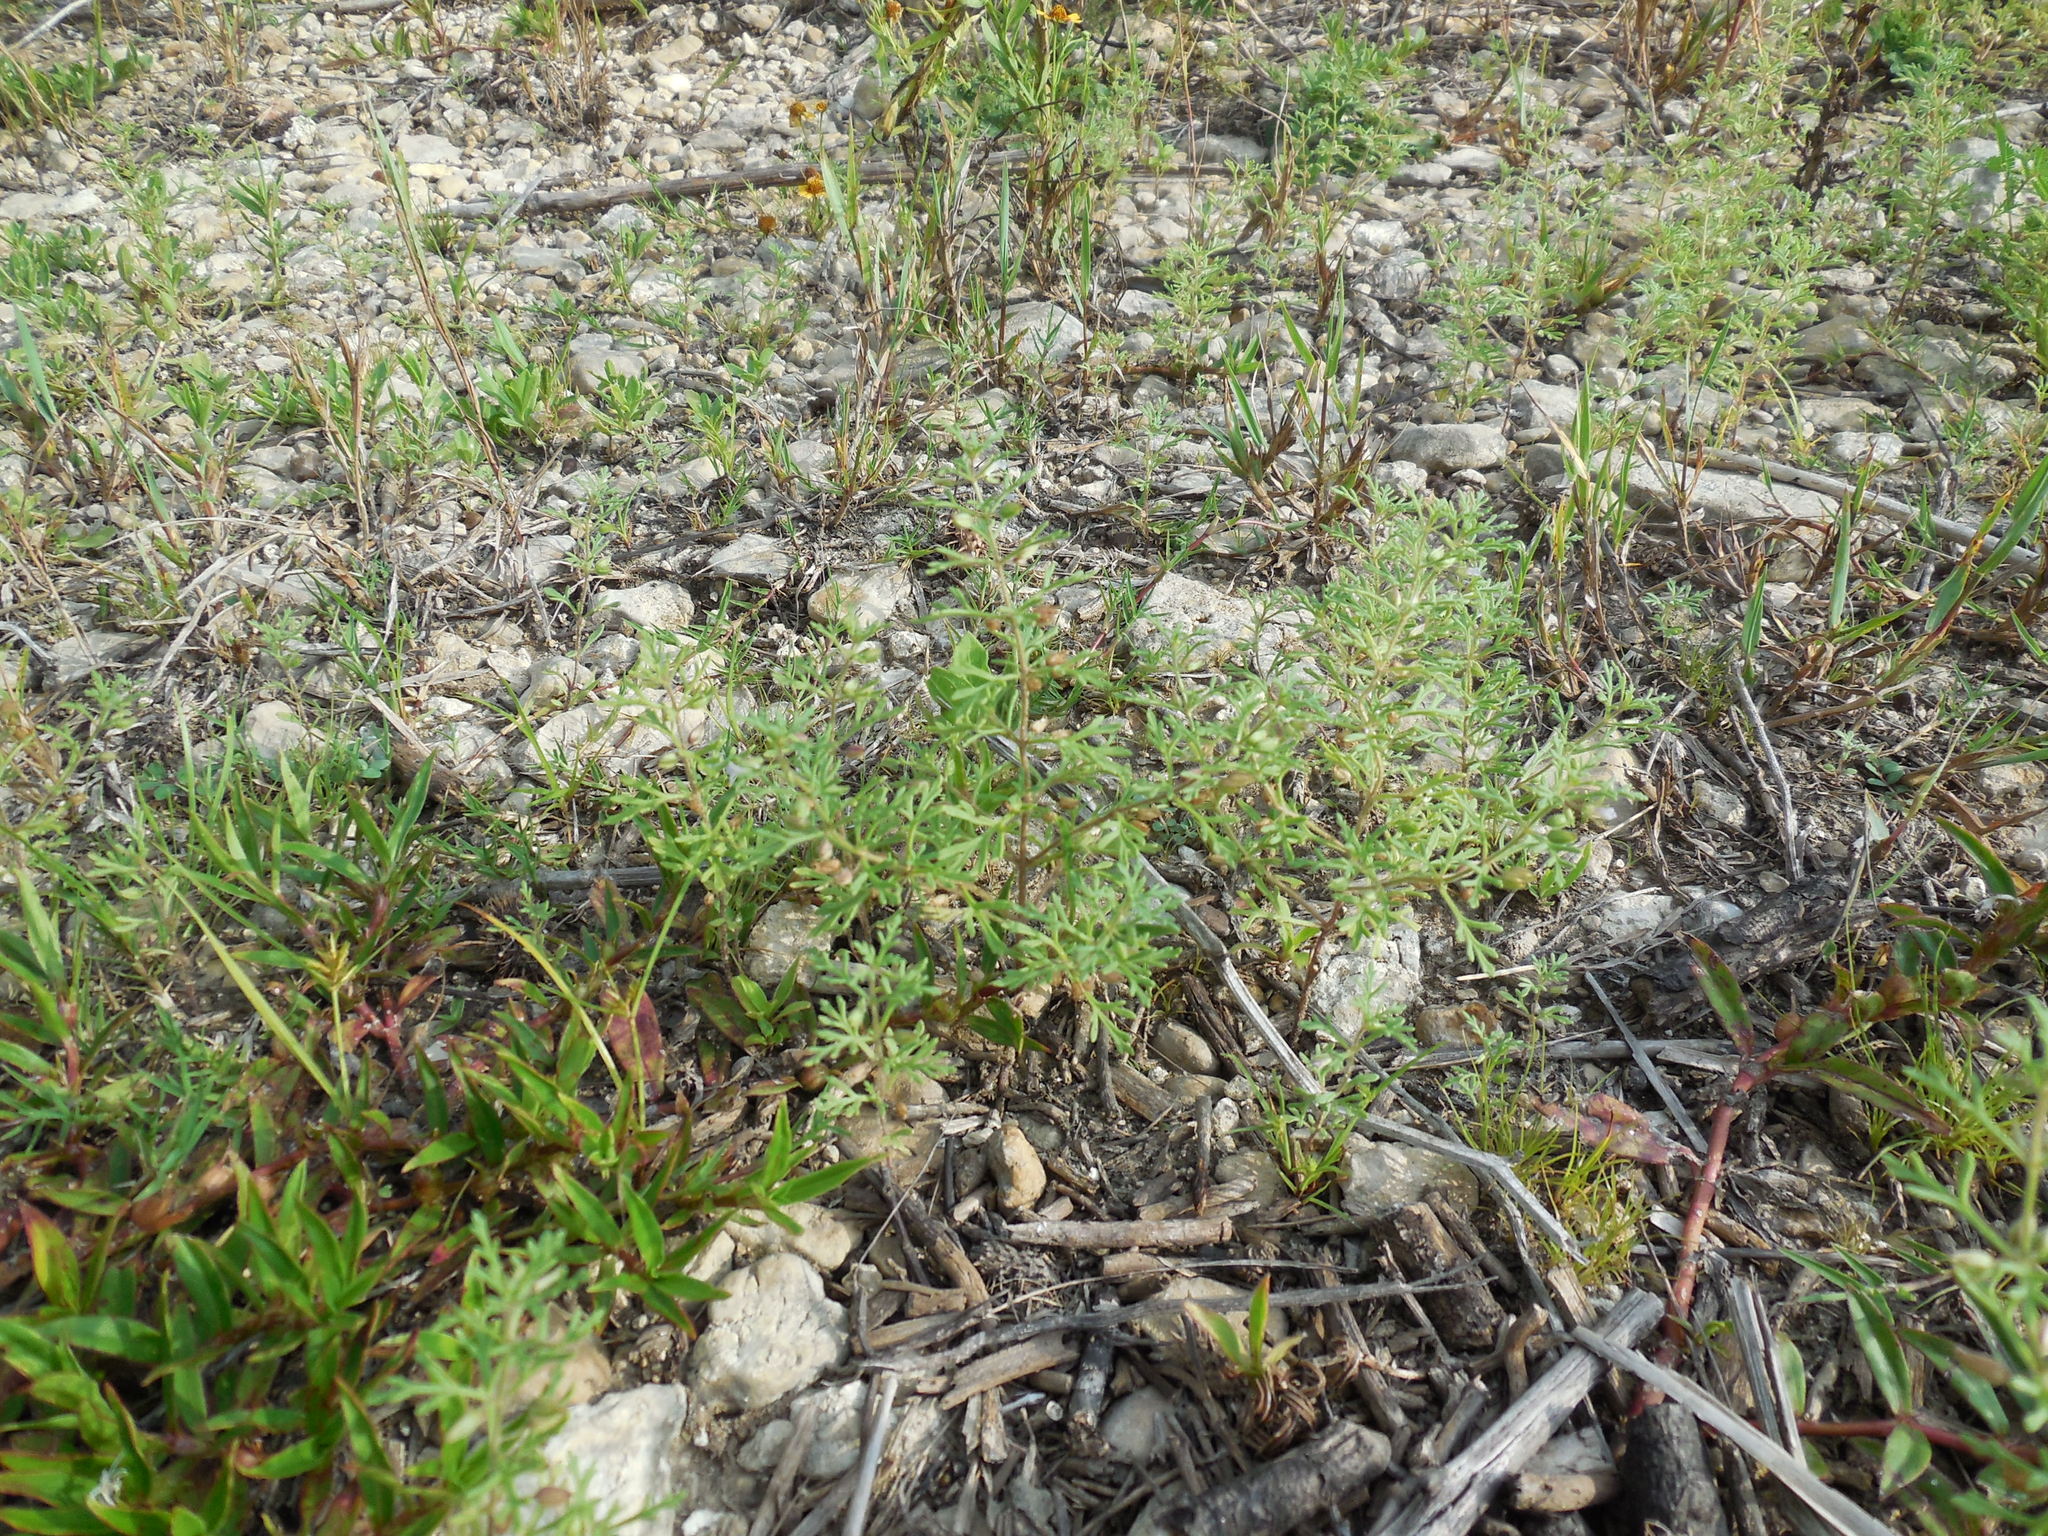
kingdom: Plantae
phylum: Tracheophyta
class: Magnoliopsida
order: Lamiales
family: Plantaginaceae
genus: Leucospora
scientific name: Leucospora multifida
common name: Narrow-leaf paleseed
